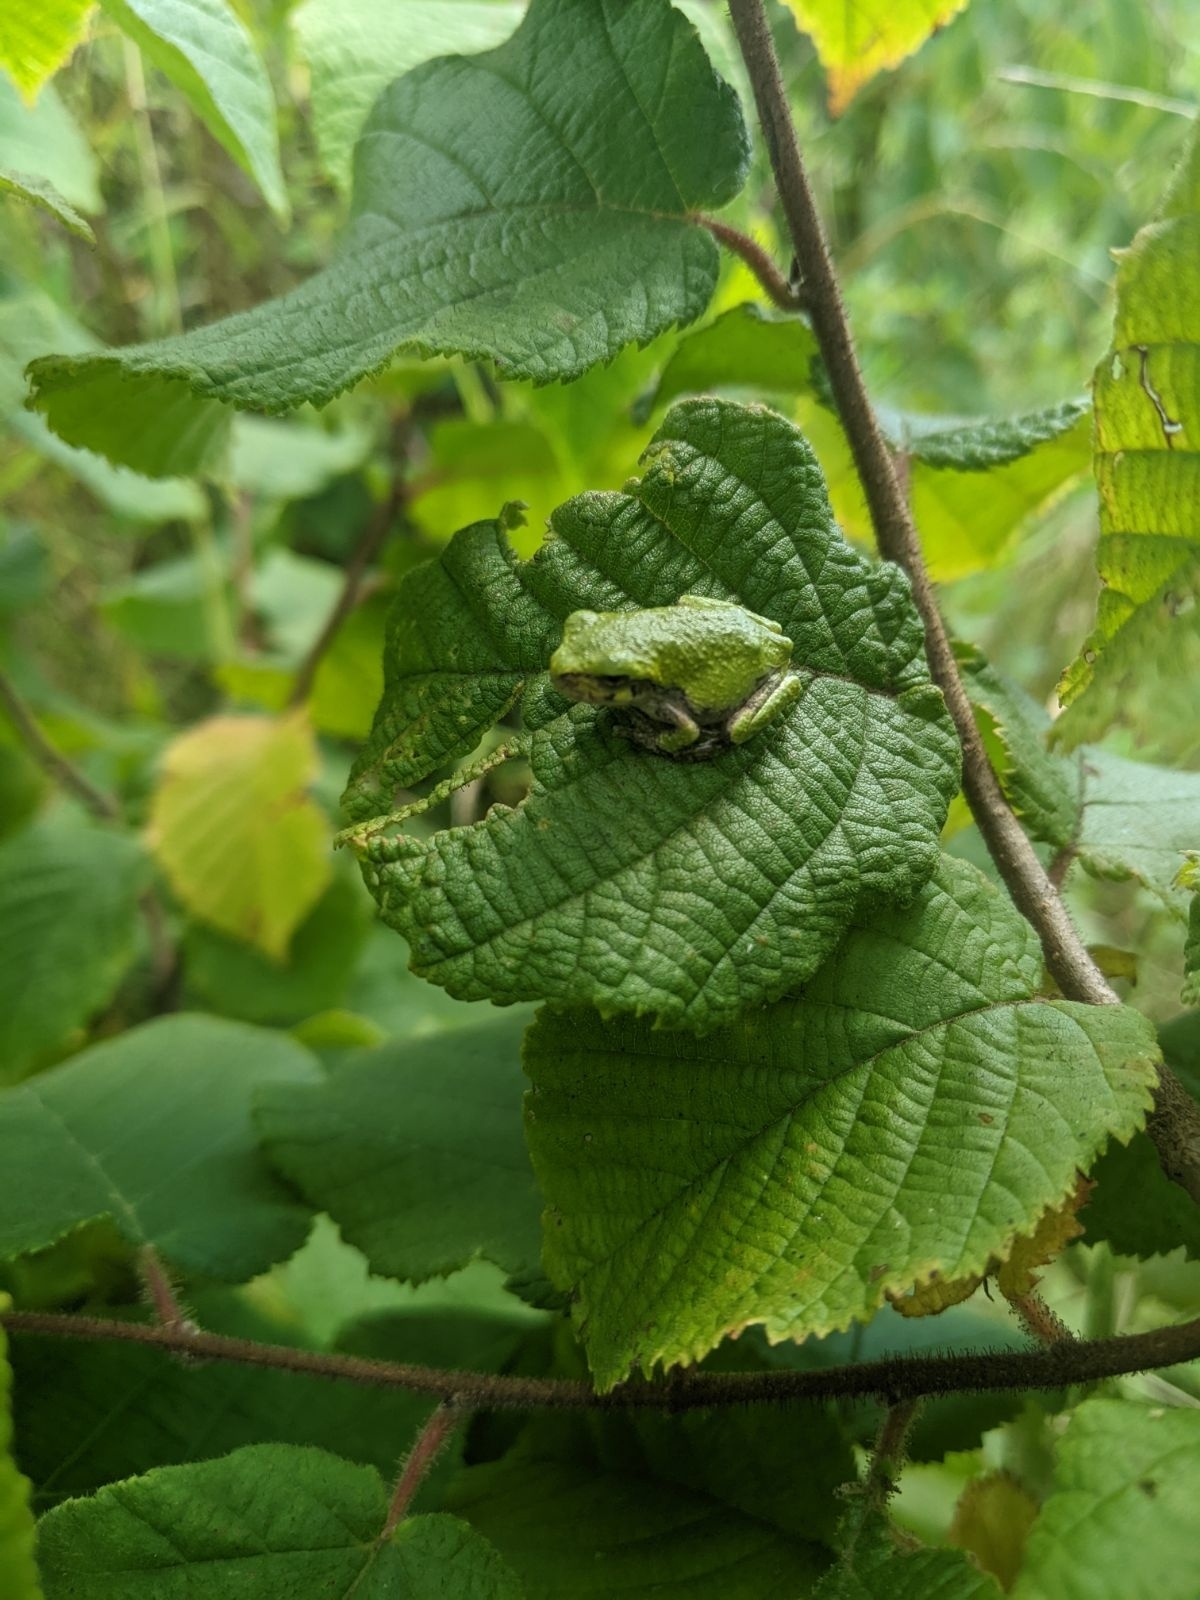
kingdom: Animalia
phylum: Chordata
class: Amphibia
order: Anura
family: Hylidae
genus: Dryophytes
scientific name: Dryophytes versicolor
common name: Gray treefrog
